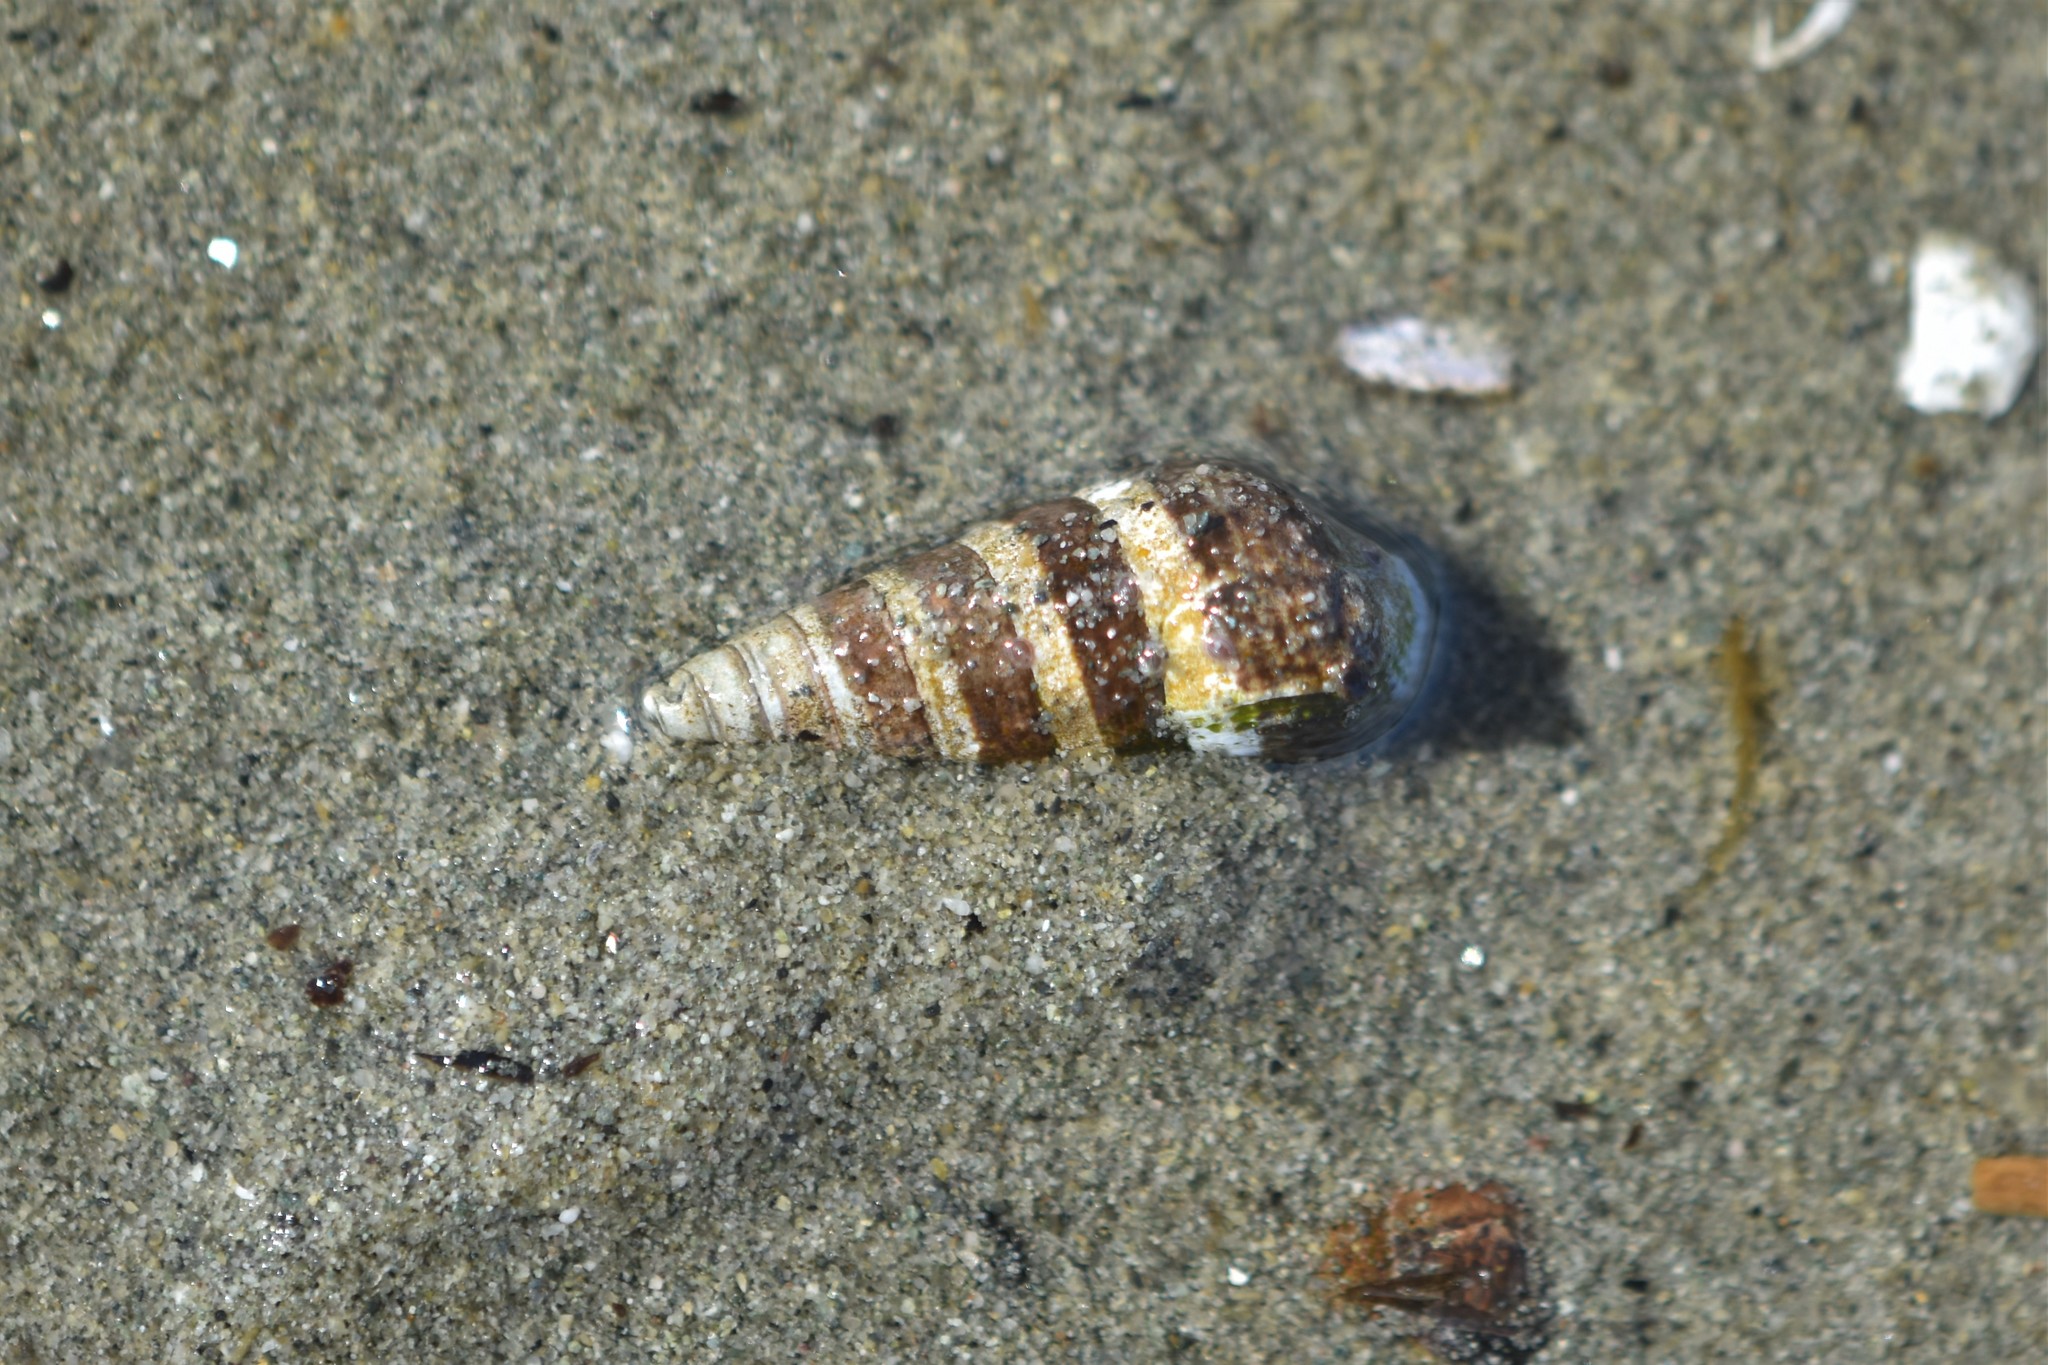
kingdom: Animalia
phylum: Mollusca
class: Gastropoda
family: Batillariidae
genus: Batillaria
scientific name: Batillaria attramentaria
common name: Japanese false cerith
